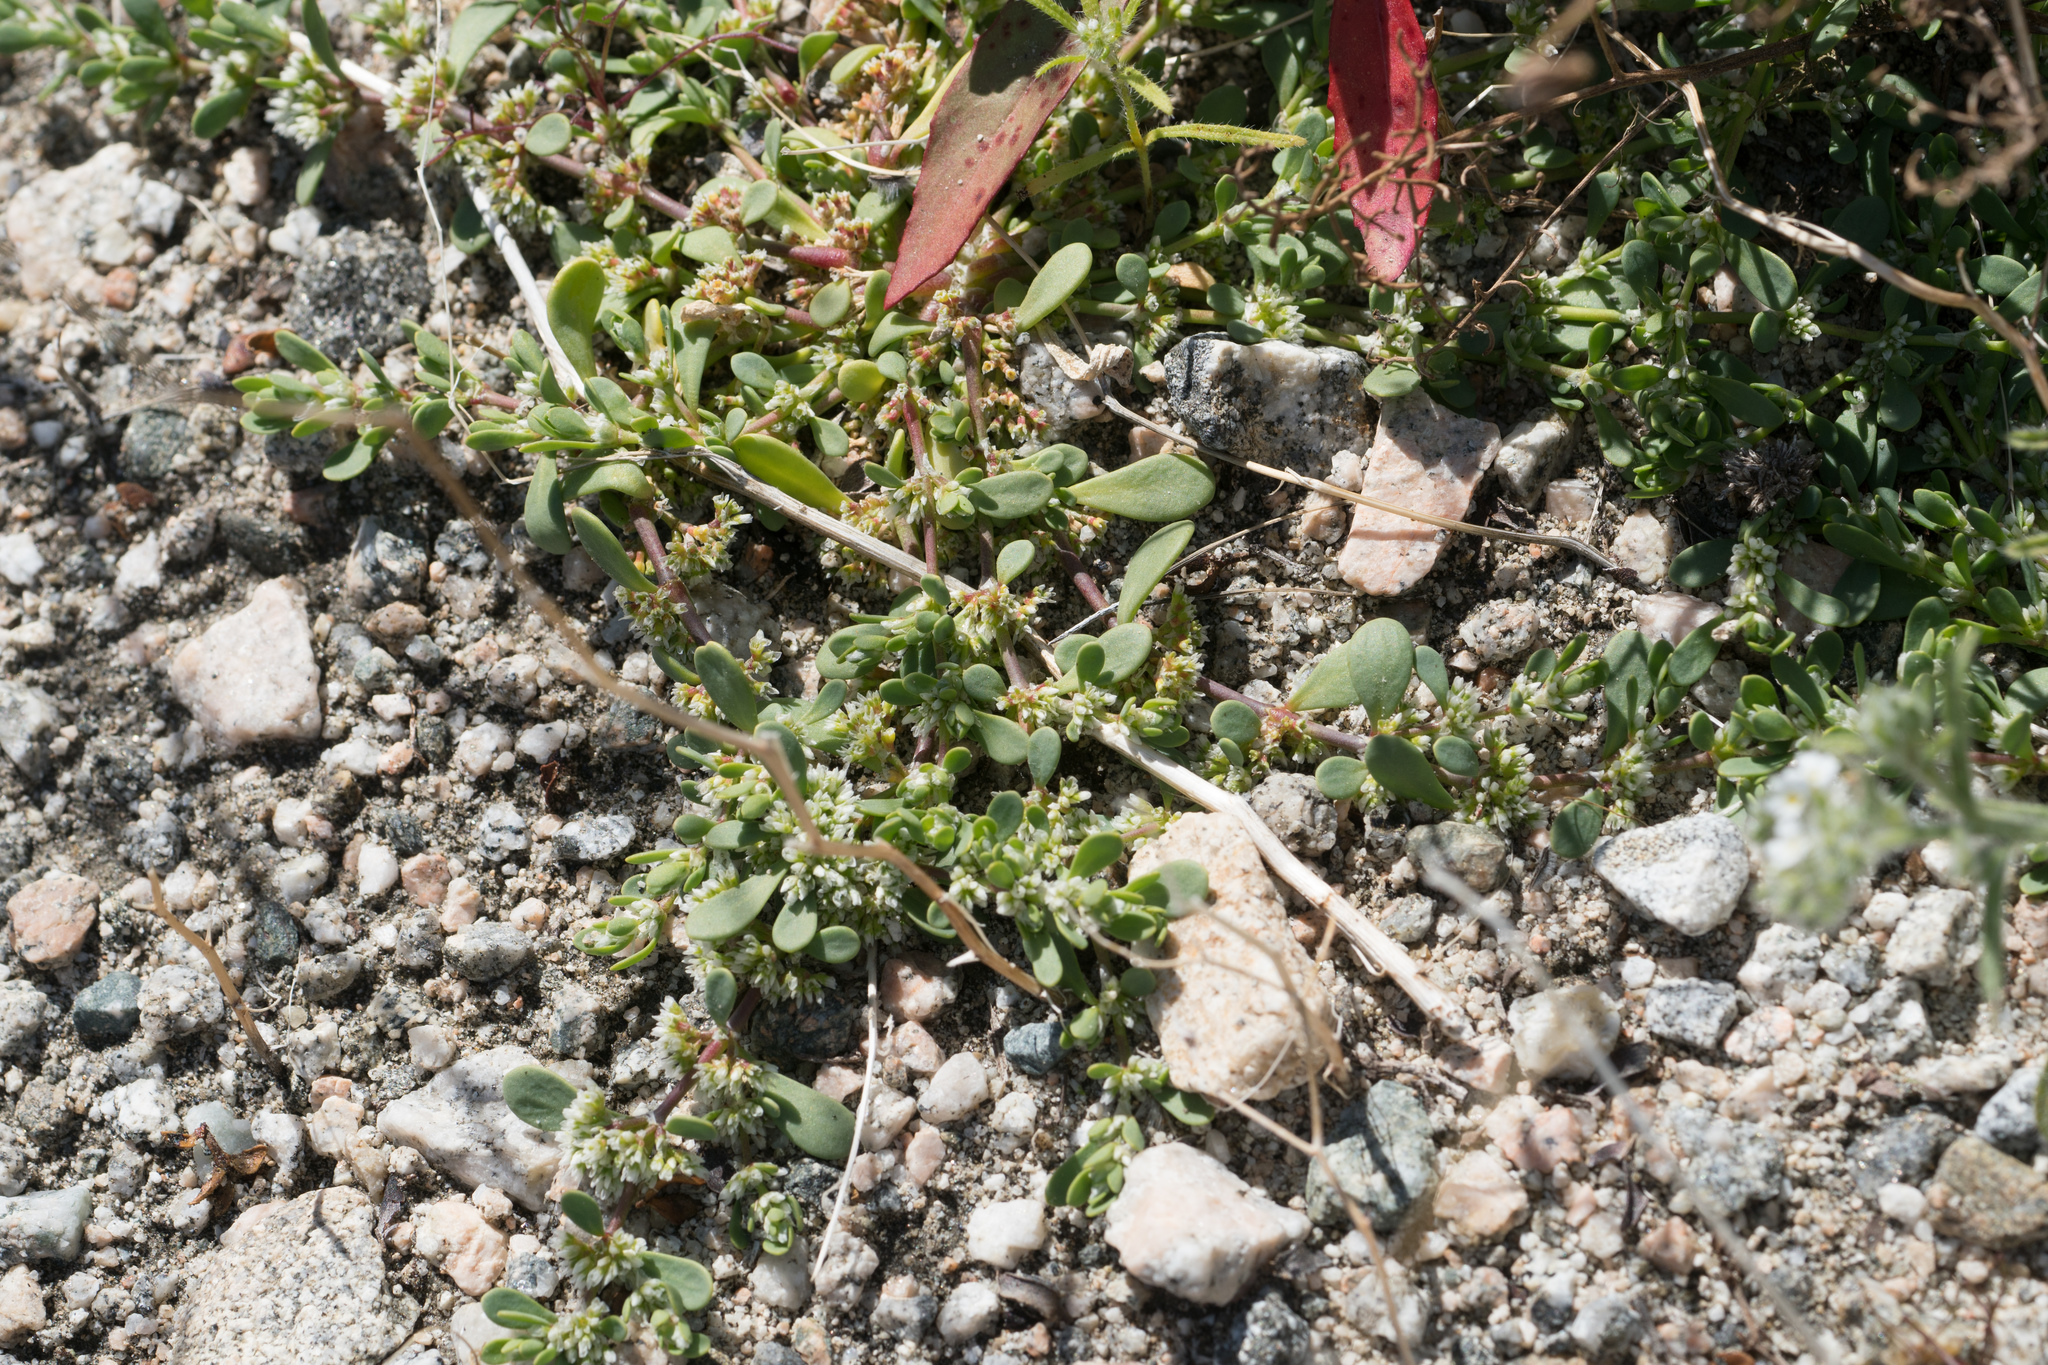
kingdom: Plantae
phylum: Tracheophyta
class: Magnoliopsida
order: Caryophyllales
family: Caryophyllaceae
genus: Achyronychia
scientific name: Achyronychia cooperi
